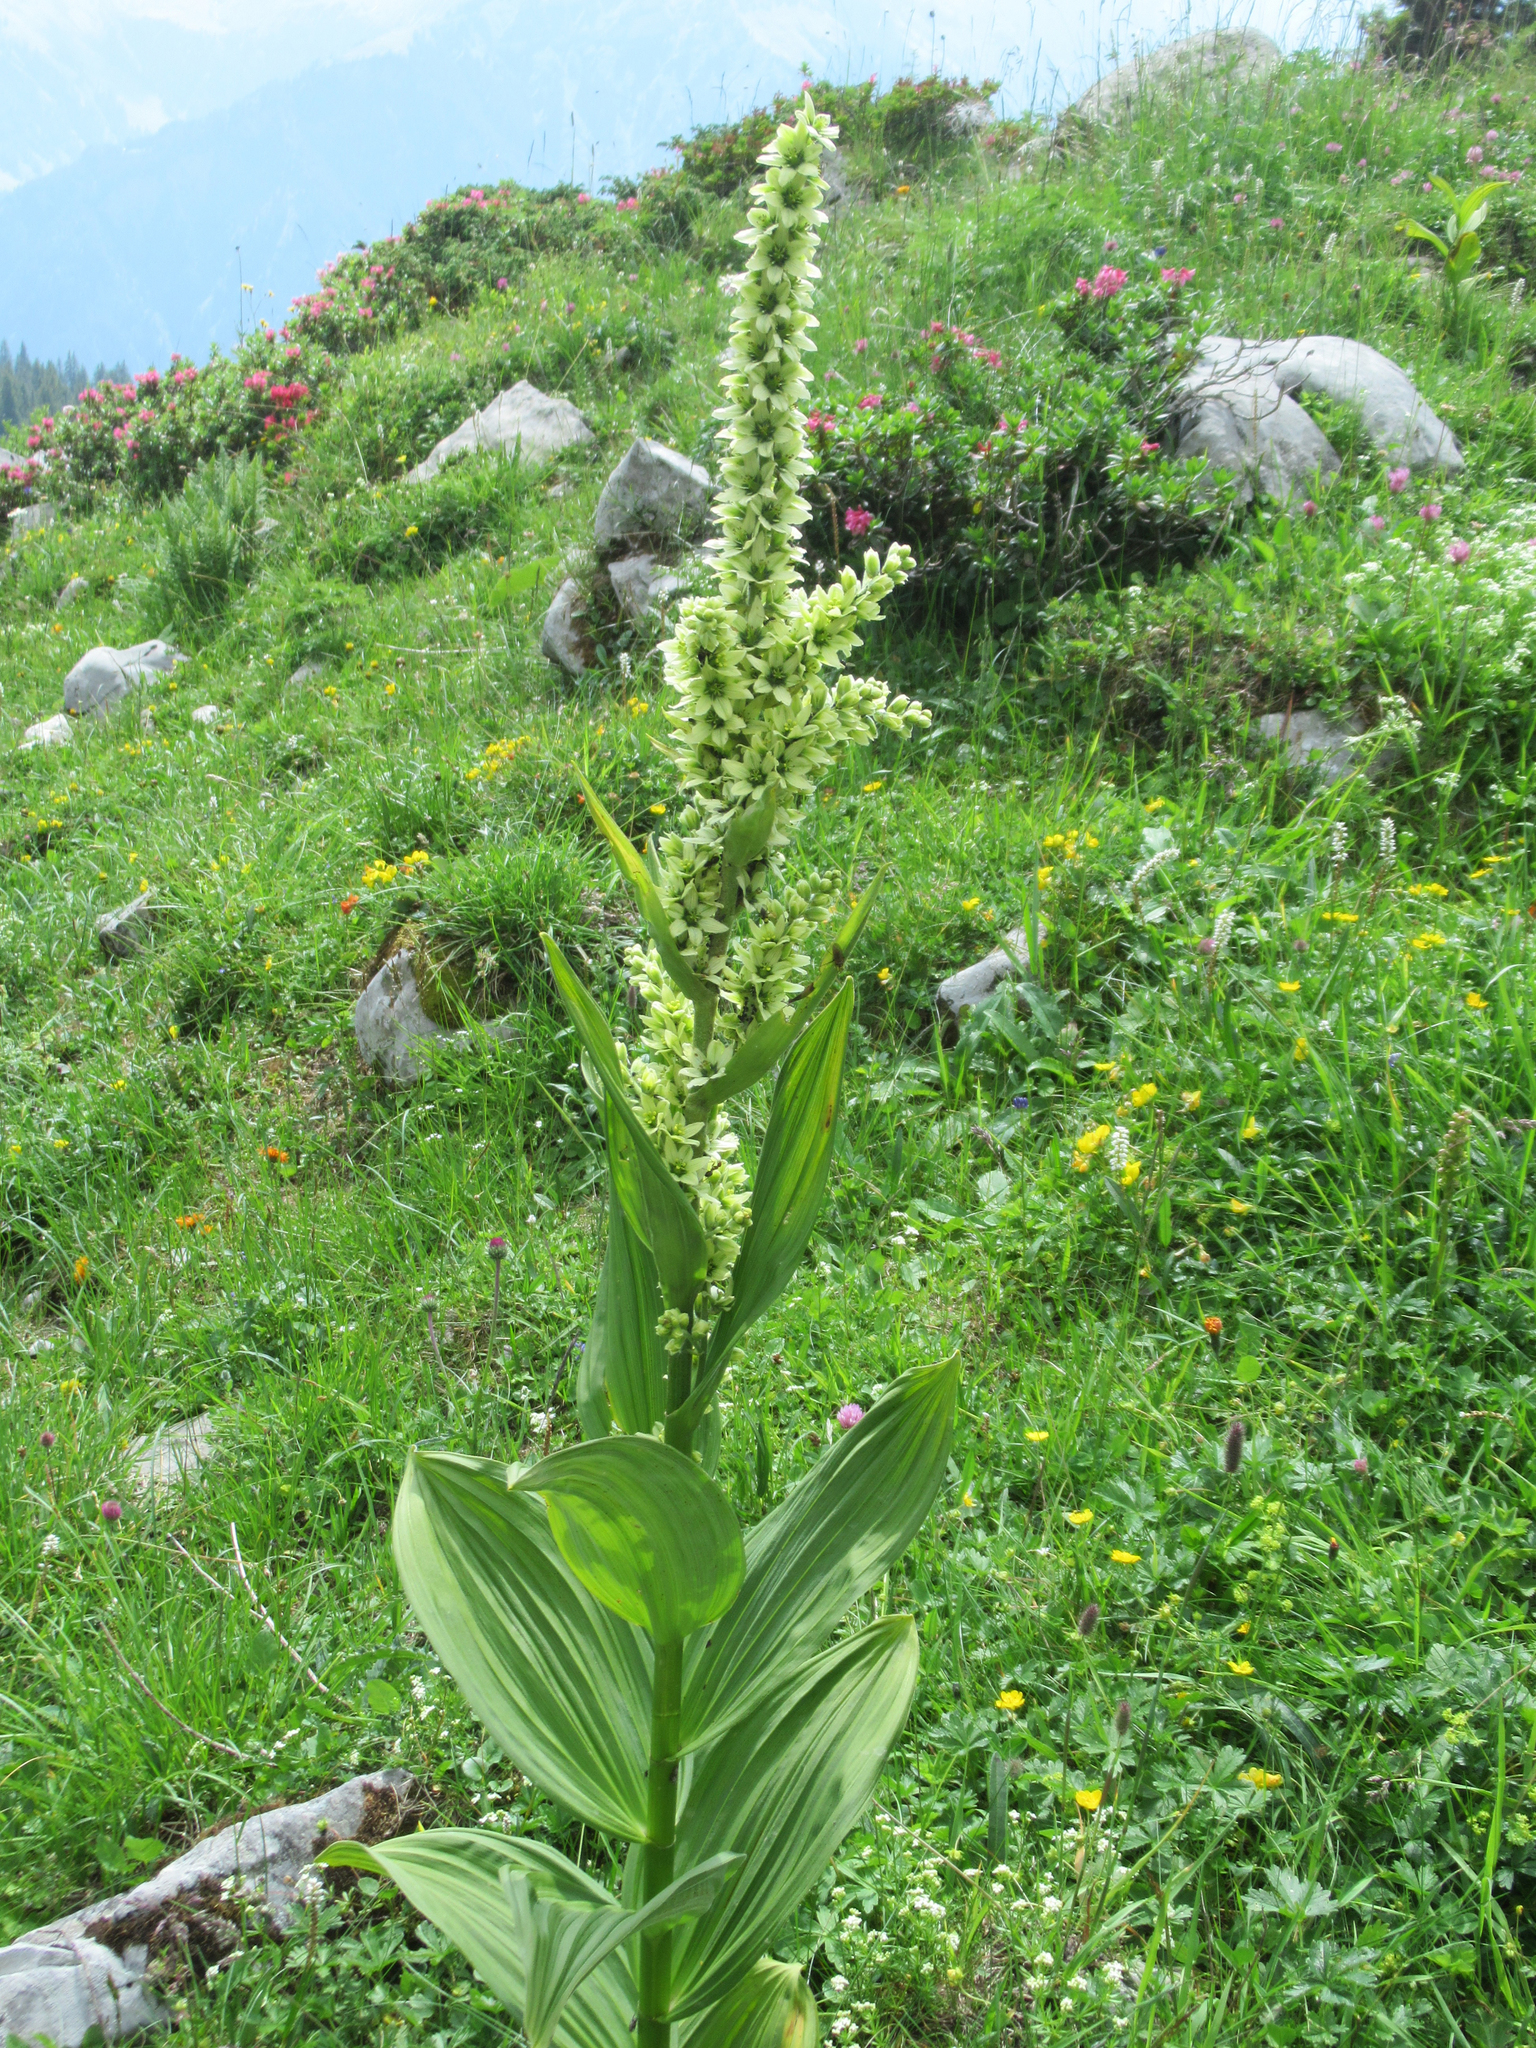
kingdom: Plantae
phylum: Tracheophyta
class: Liliopsida
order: Liliales
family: Melanthiaceae
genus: Veratrum
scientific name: Veratrum album
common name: White veratrum
